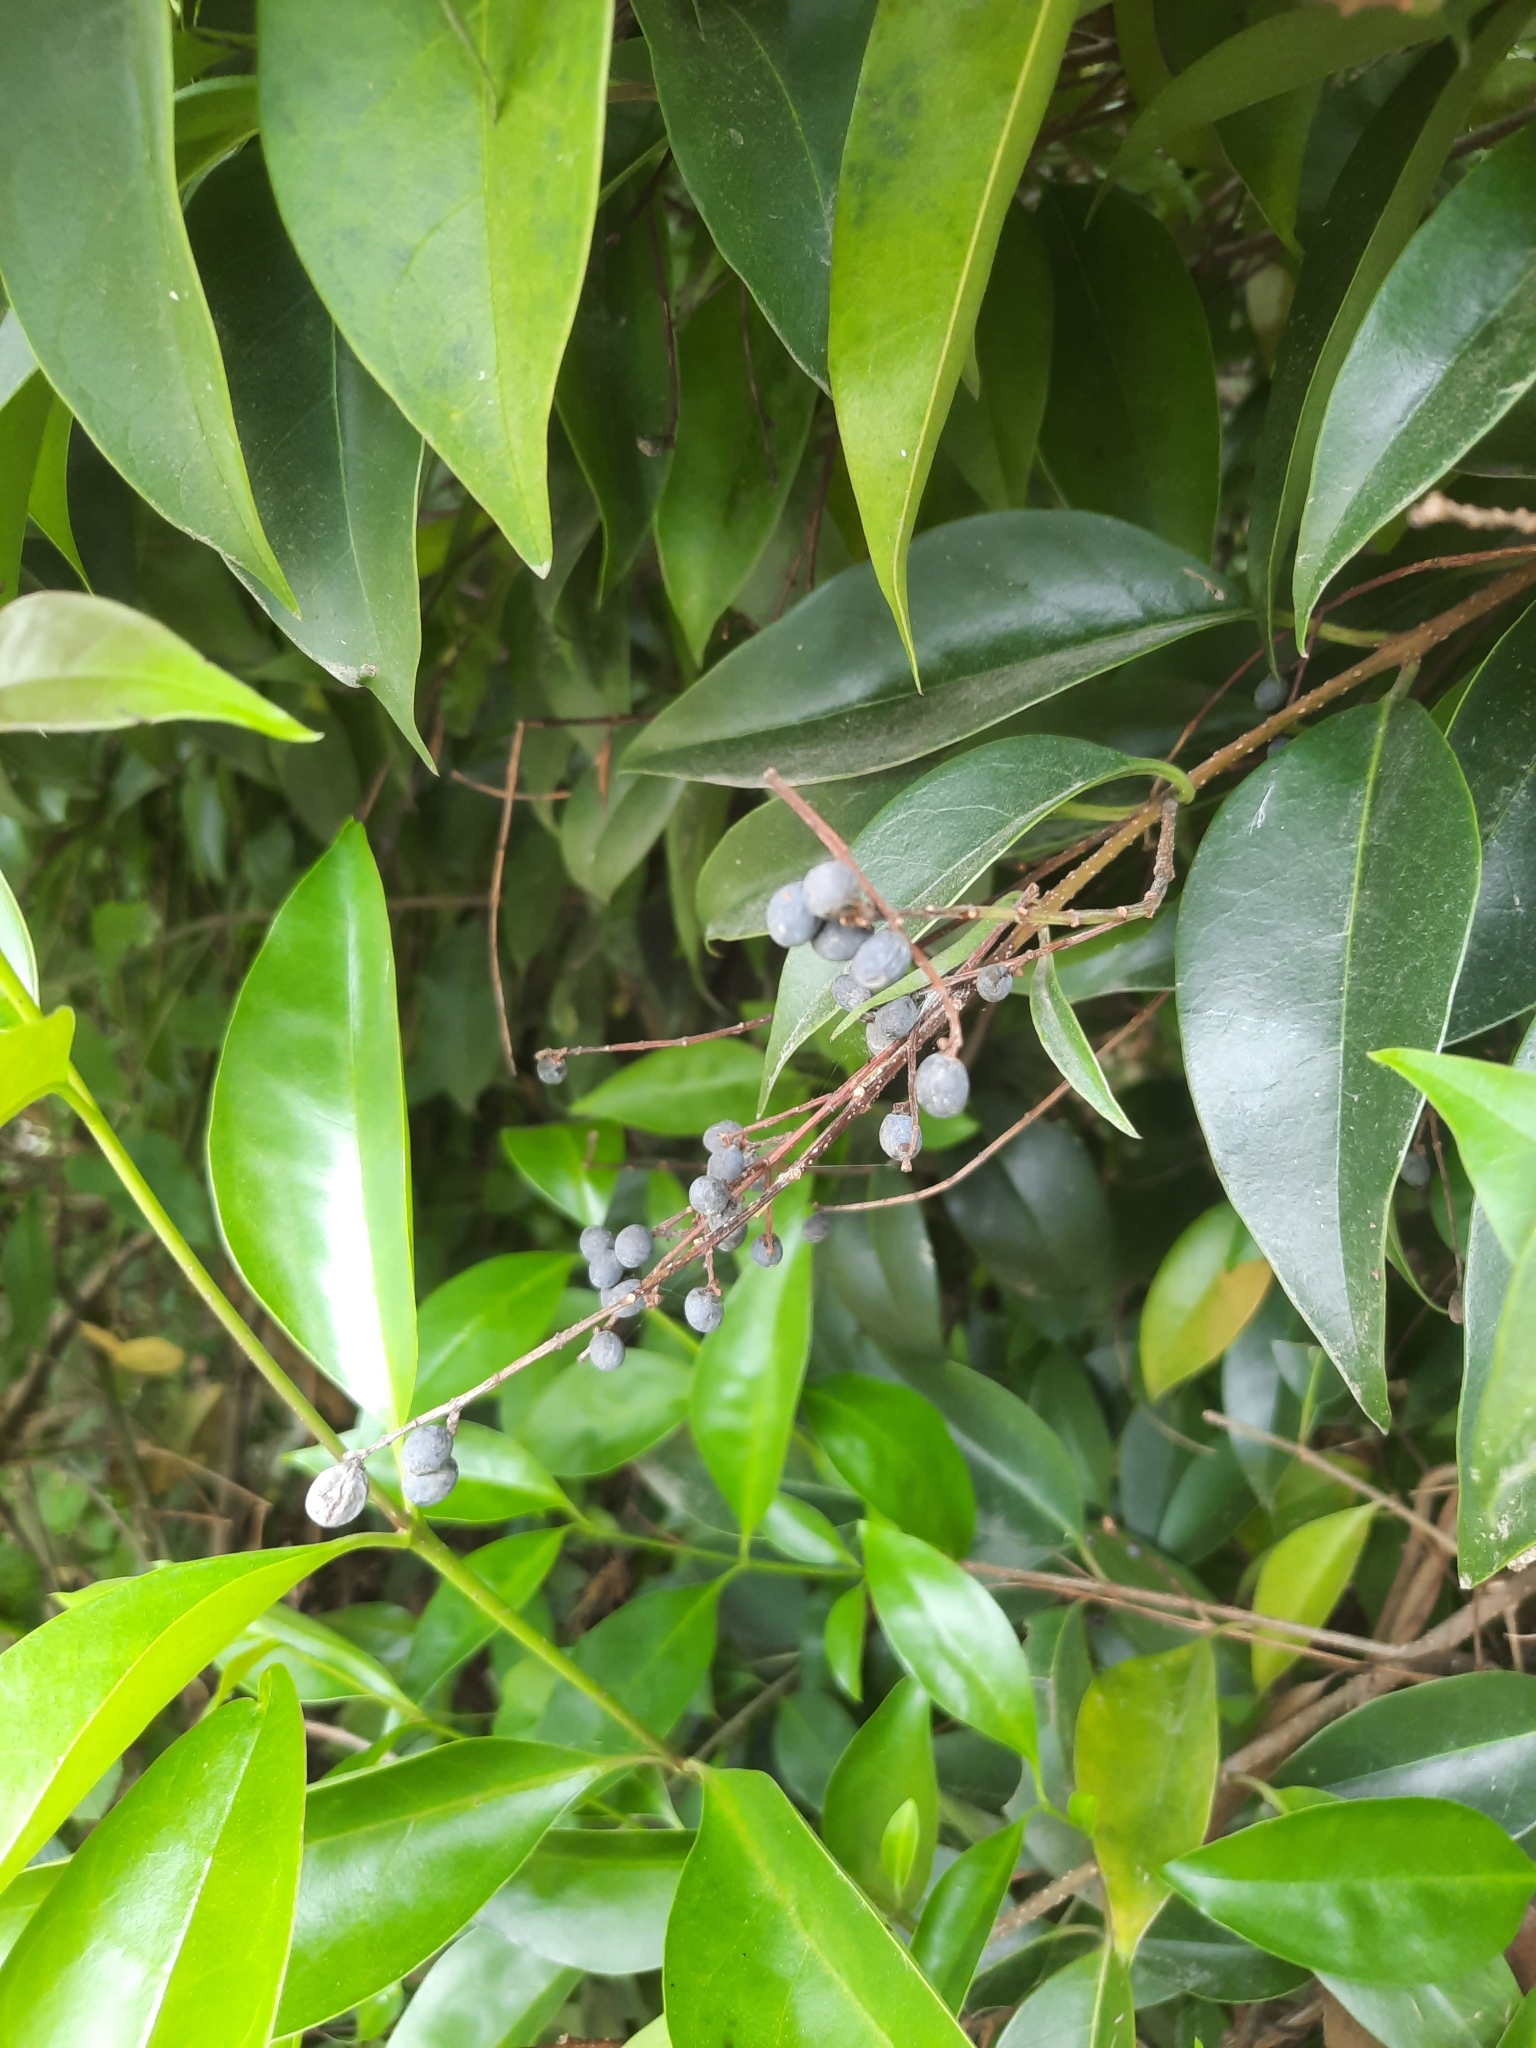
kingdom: Plantae
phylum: Tracheophyta
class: Magnoliopsida
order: Lamiales
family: Oleaceae
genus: Ligustrum
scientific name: Ligustrum lucidum
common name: Glossy privet
